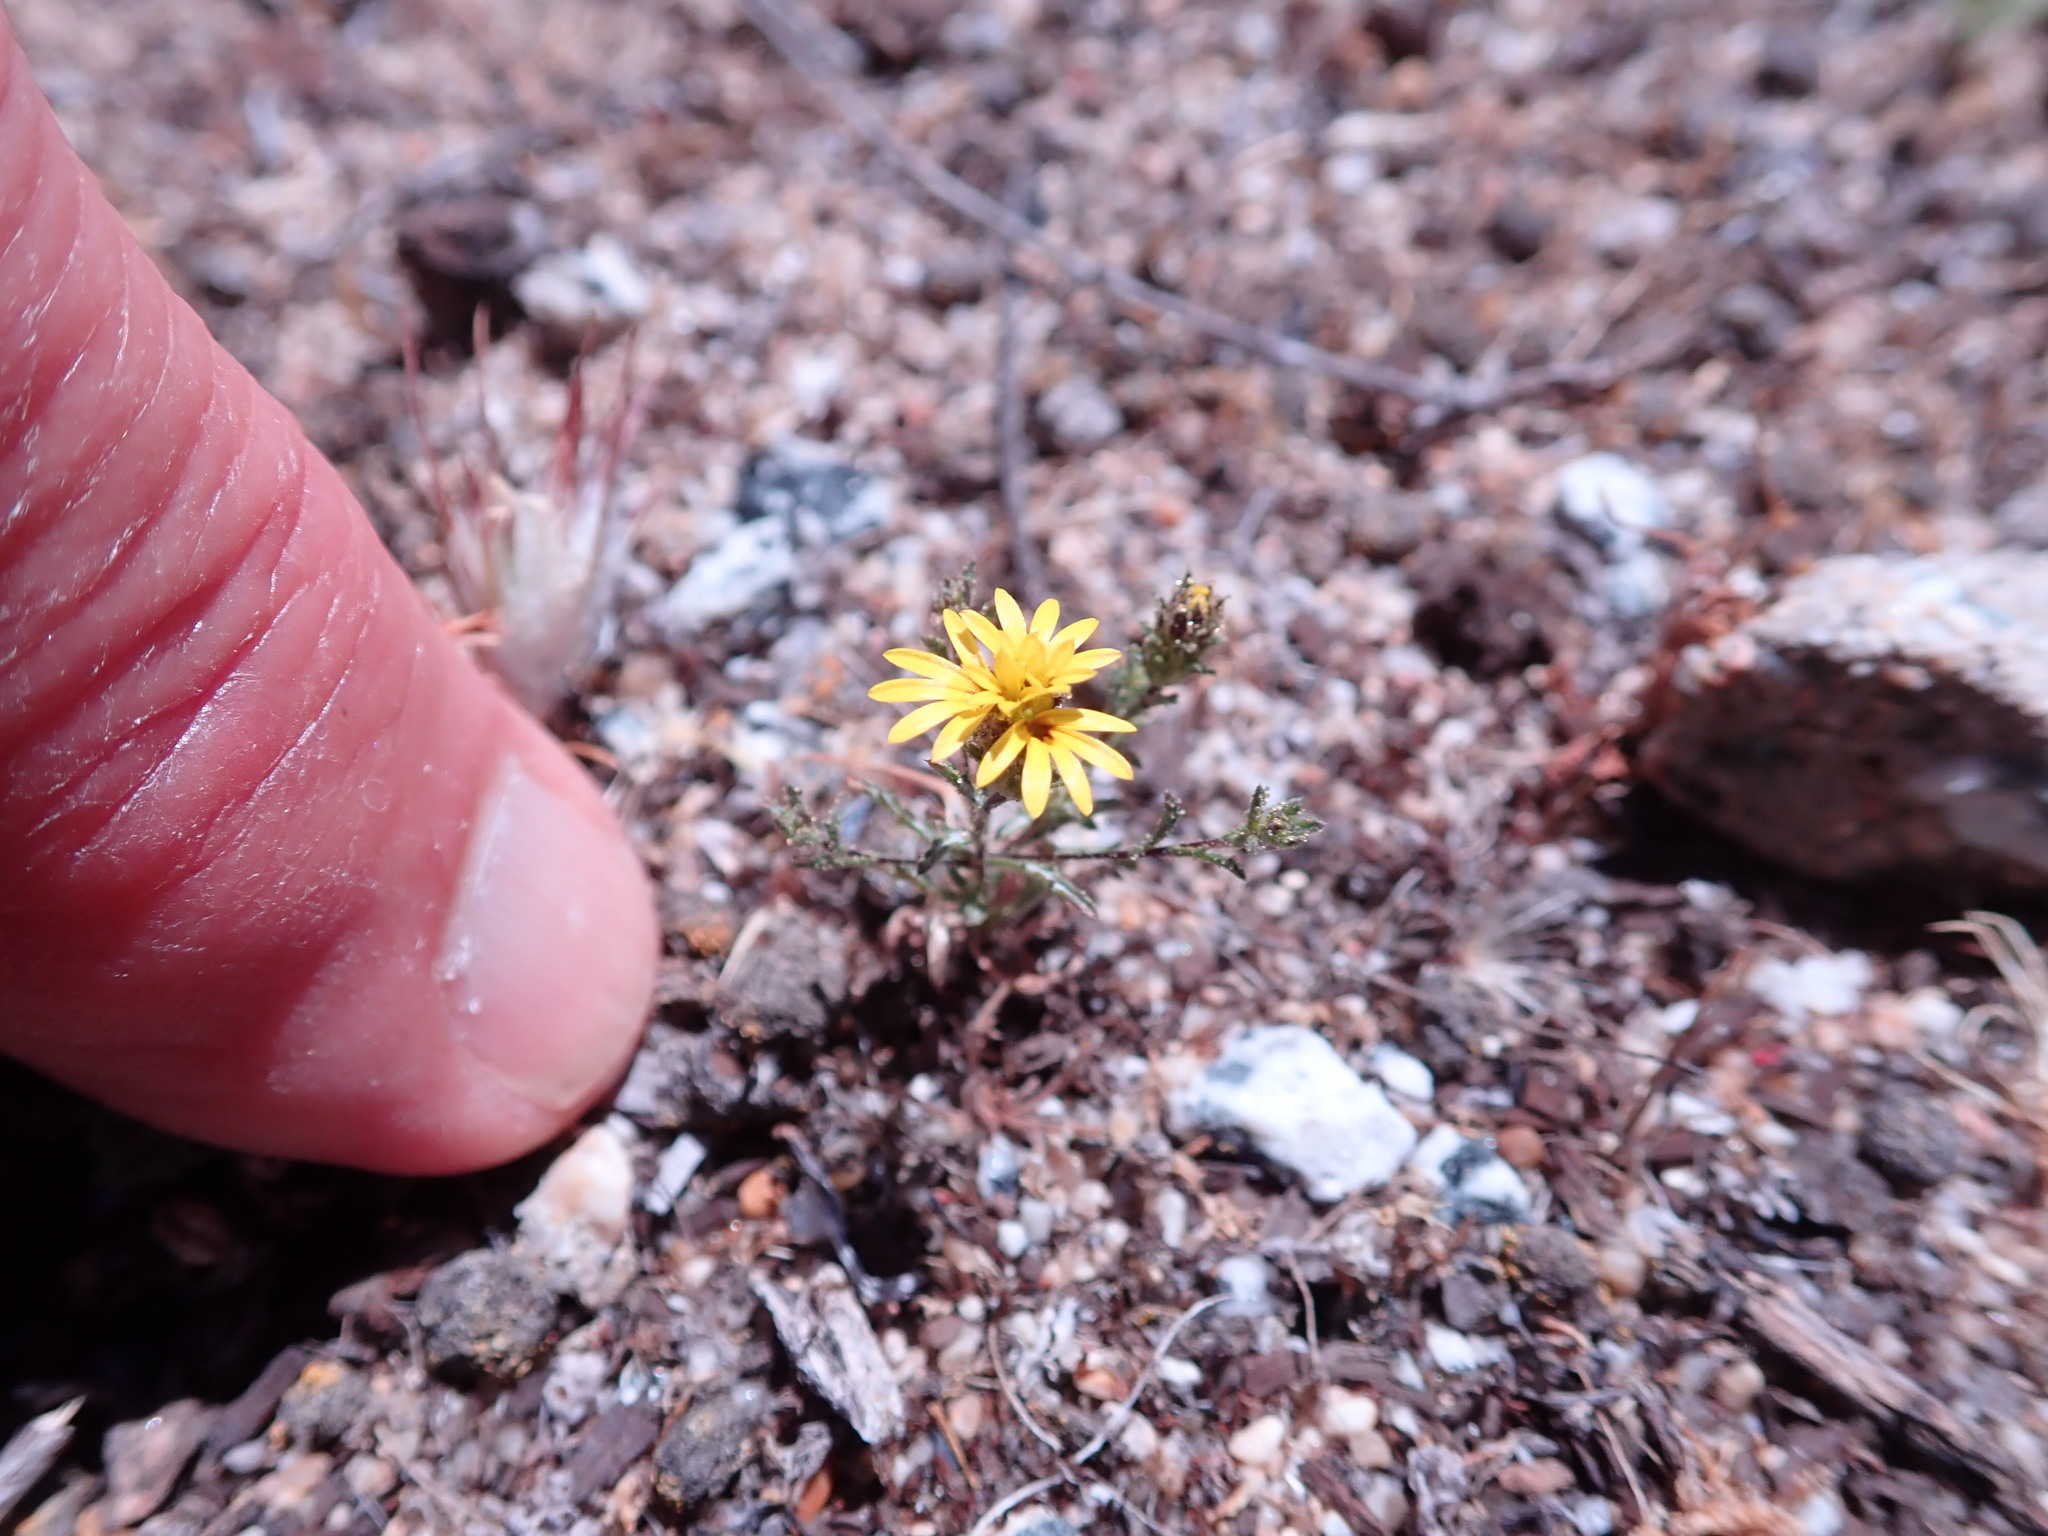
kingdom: Plantae
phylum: Tracheophyta
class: Magnoliopsida
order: Asterales
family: Asteraceae
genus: Lessingia
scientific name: Lessingia pectinata
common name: Valley lessingia
